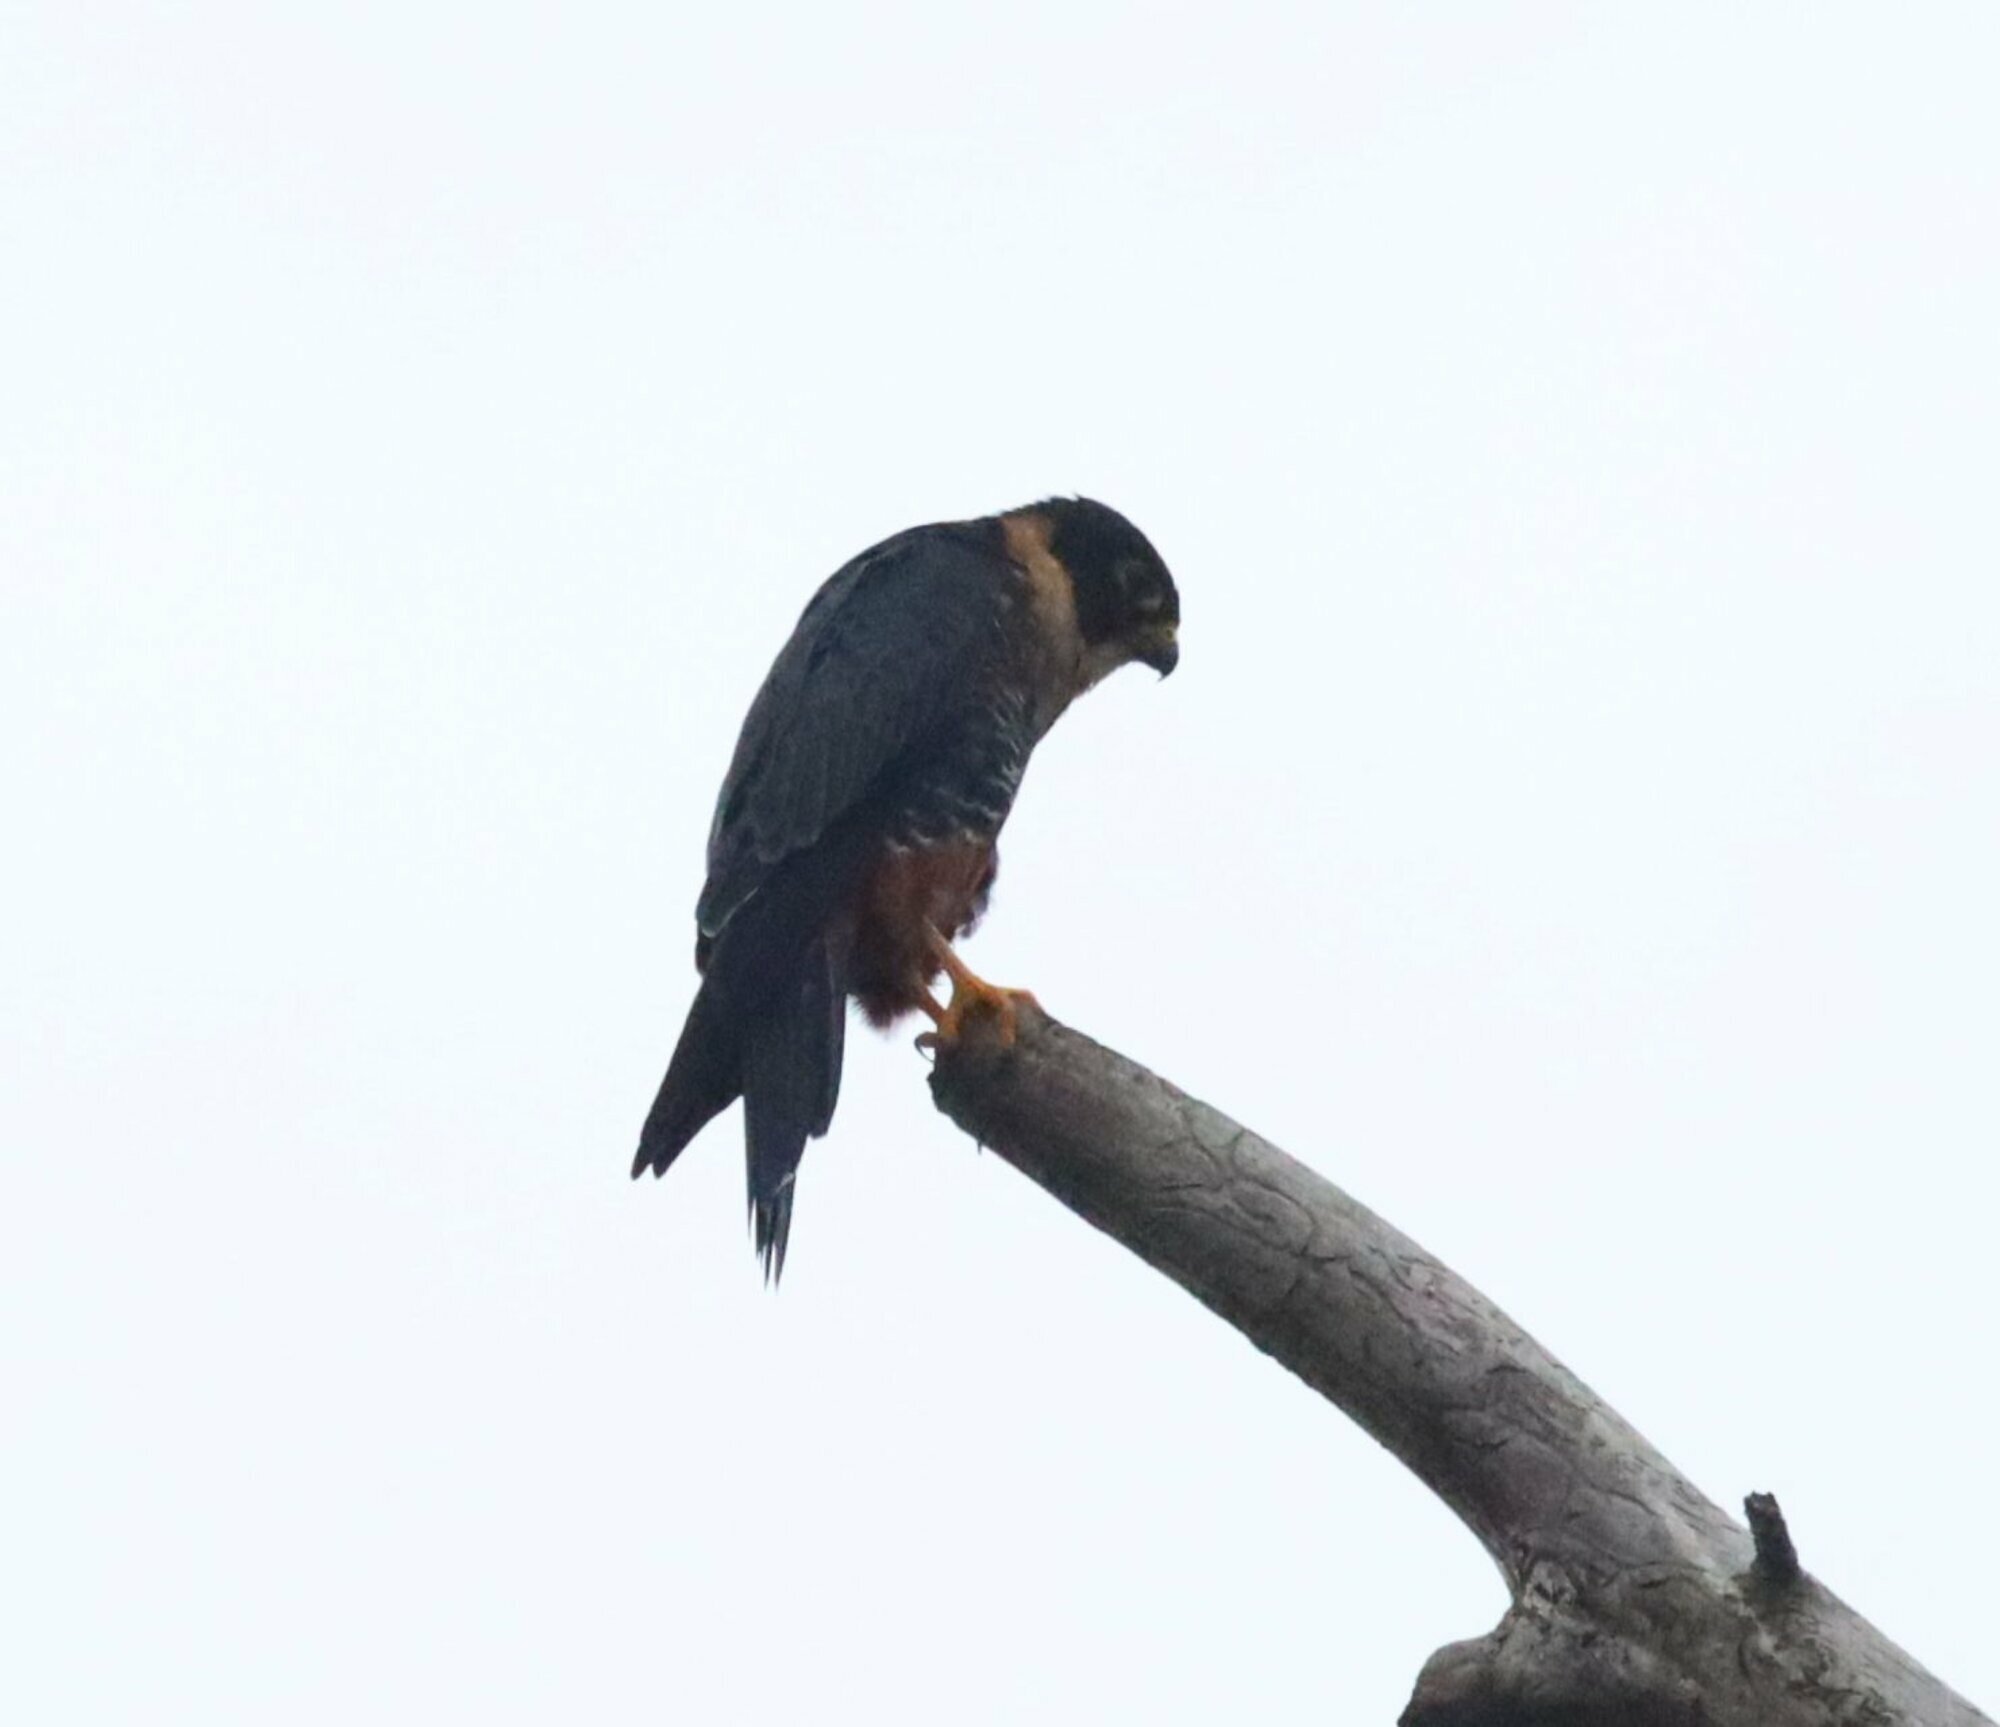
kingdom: Animalia
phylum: Chordata
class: Aves
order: Falconiformes
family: Falconidae
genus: Falco
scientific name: Falco rufigularis
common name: Bat falcon
